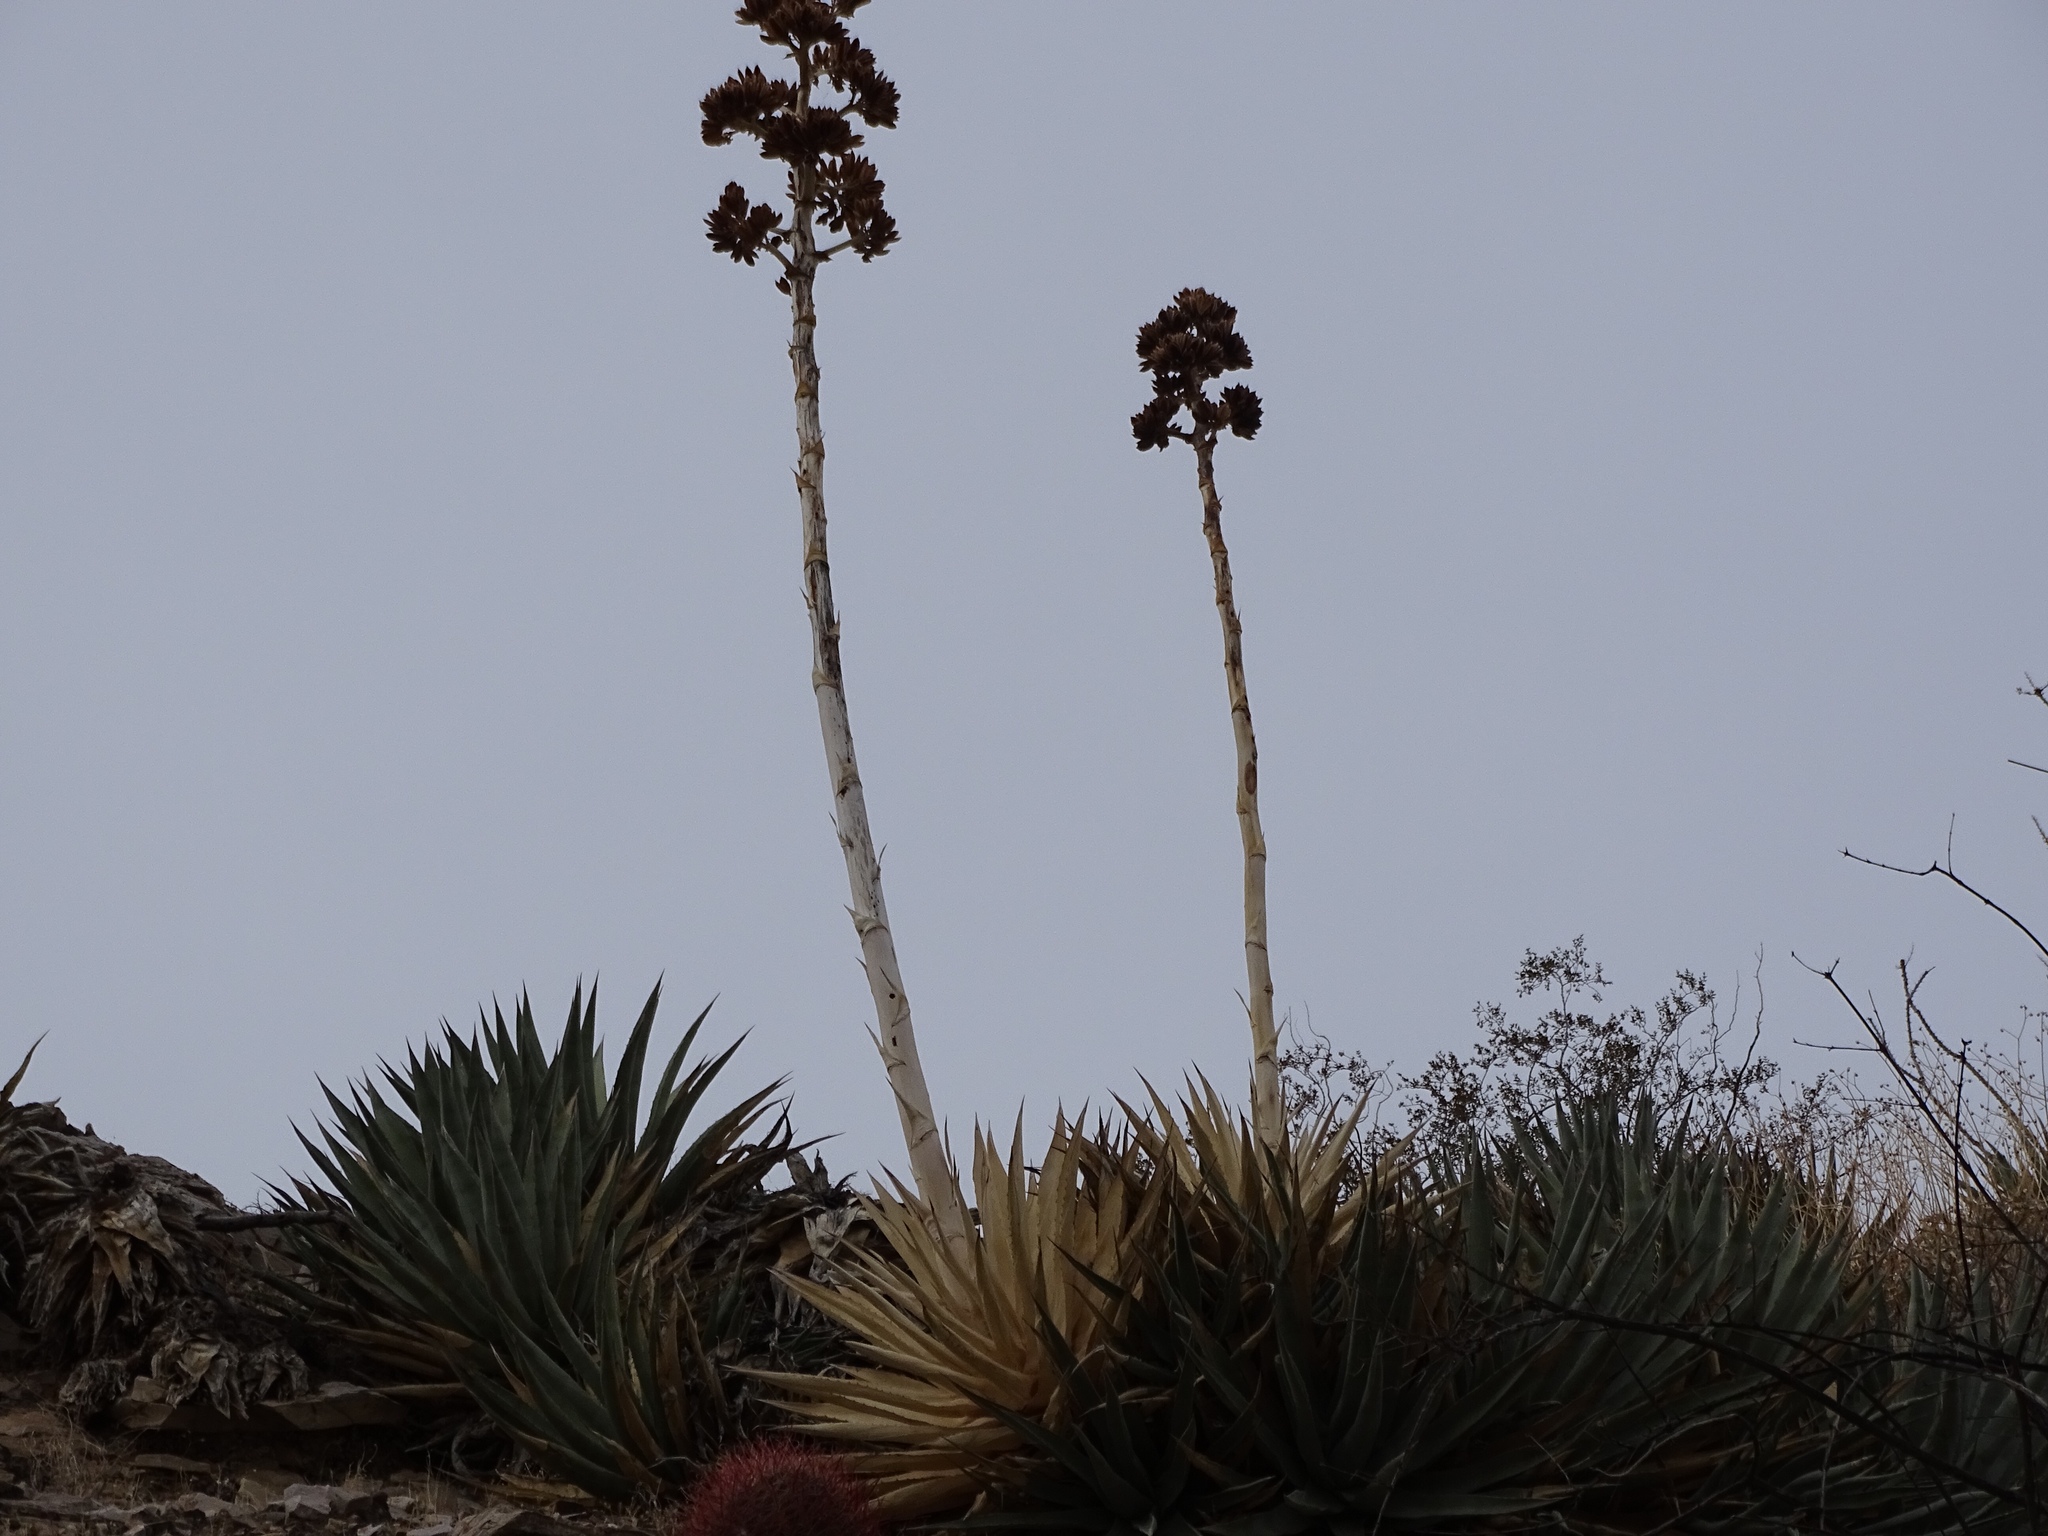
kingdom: Plantae
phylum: Tracheophyta
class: Liliopsida
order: Asparagales
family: Asparagaceae
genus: Agave
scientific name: Agave deserti
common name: Desert agave
